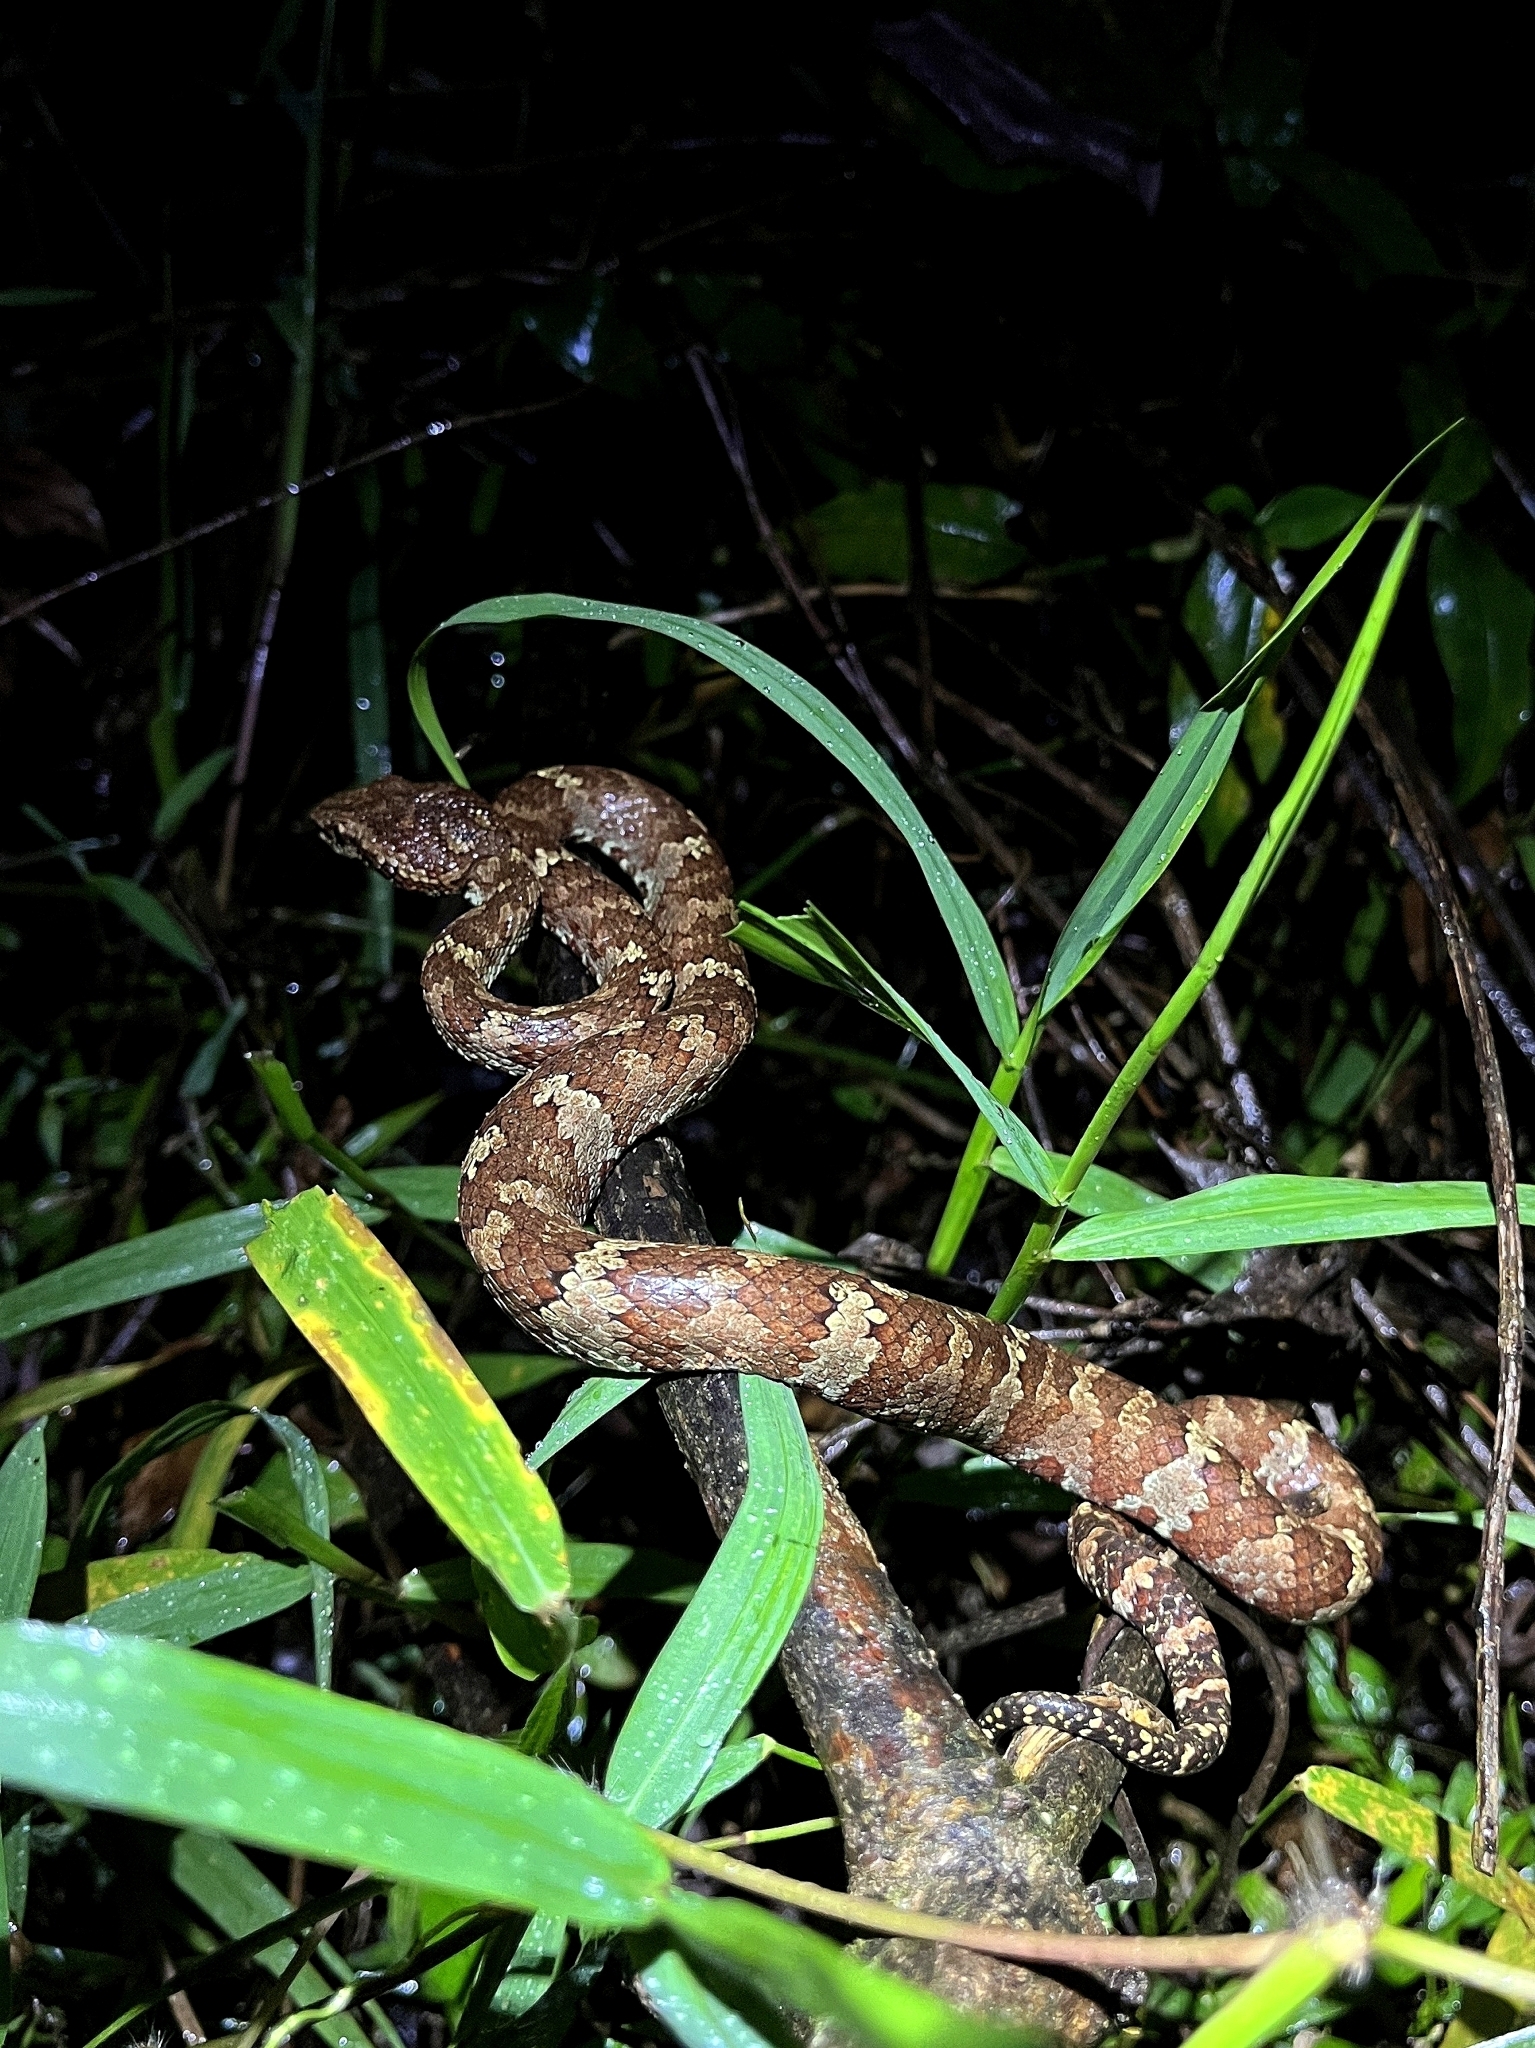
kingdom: Animalia
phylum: Chordata
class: Squamata
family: Viperidae
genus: Craspedocephalus
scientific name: Craspedocephalus malabaricus
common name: Malabarian pit viper
